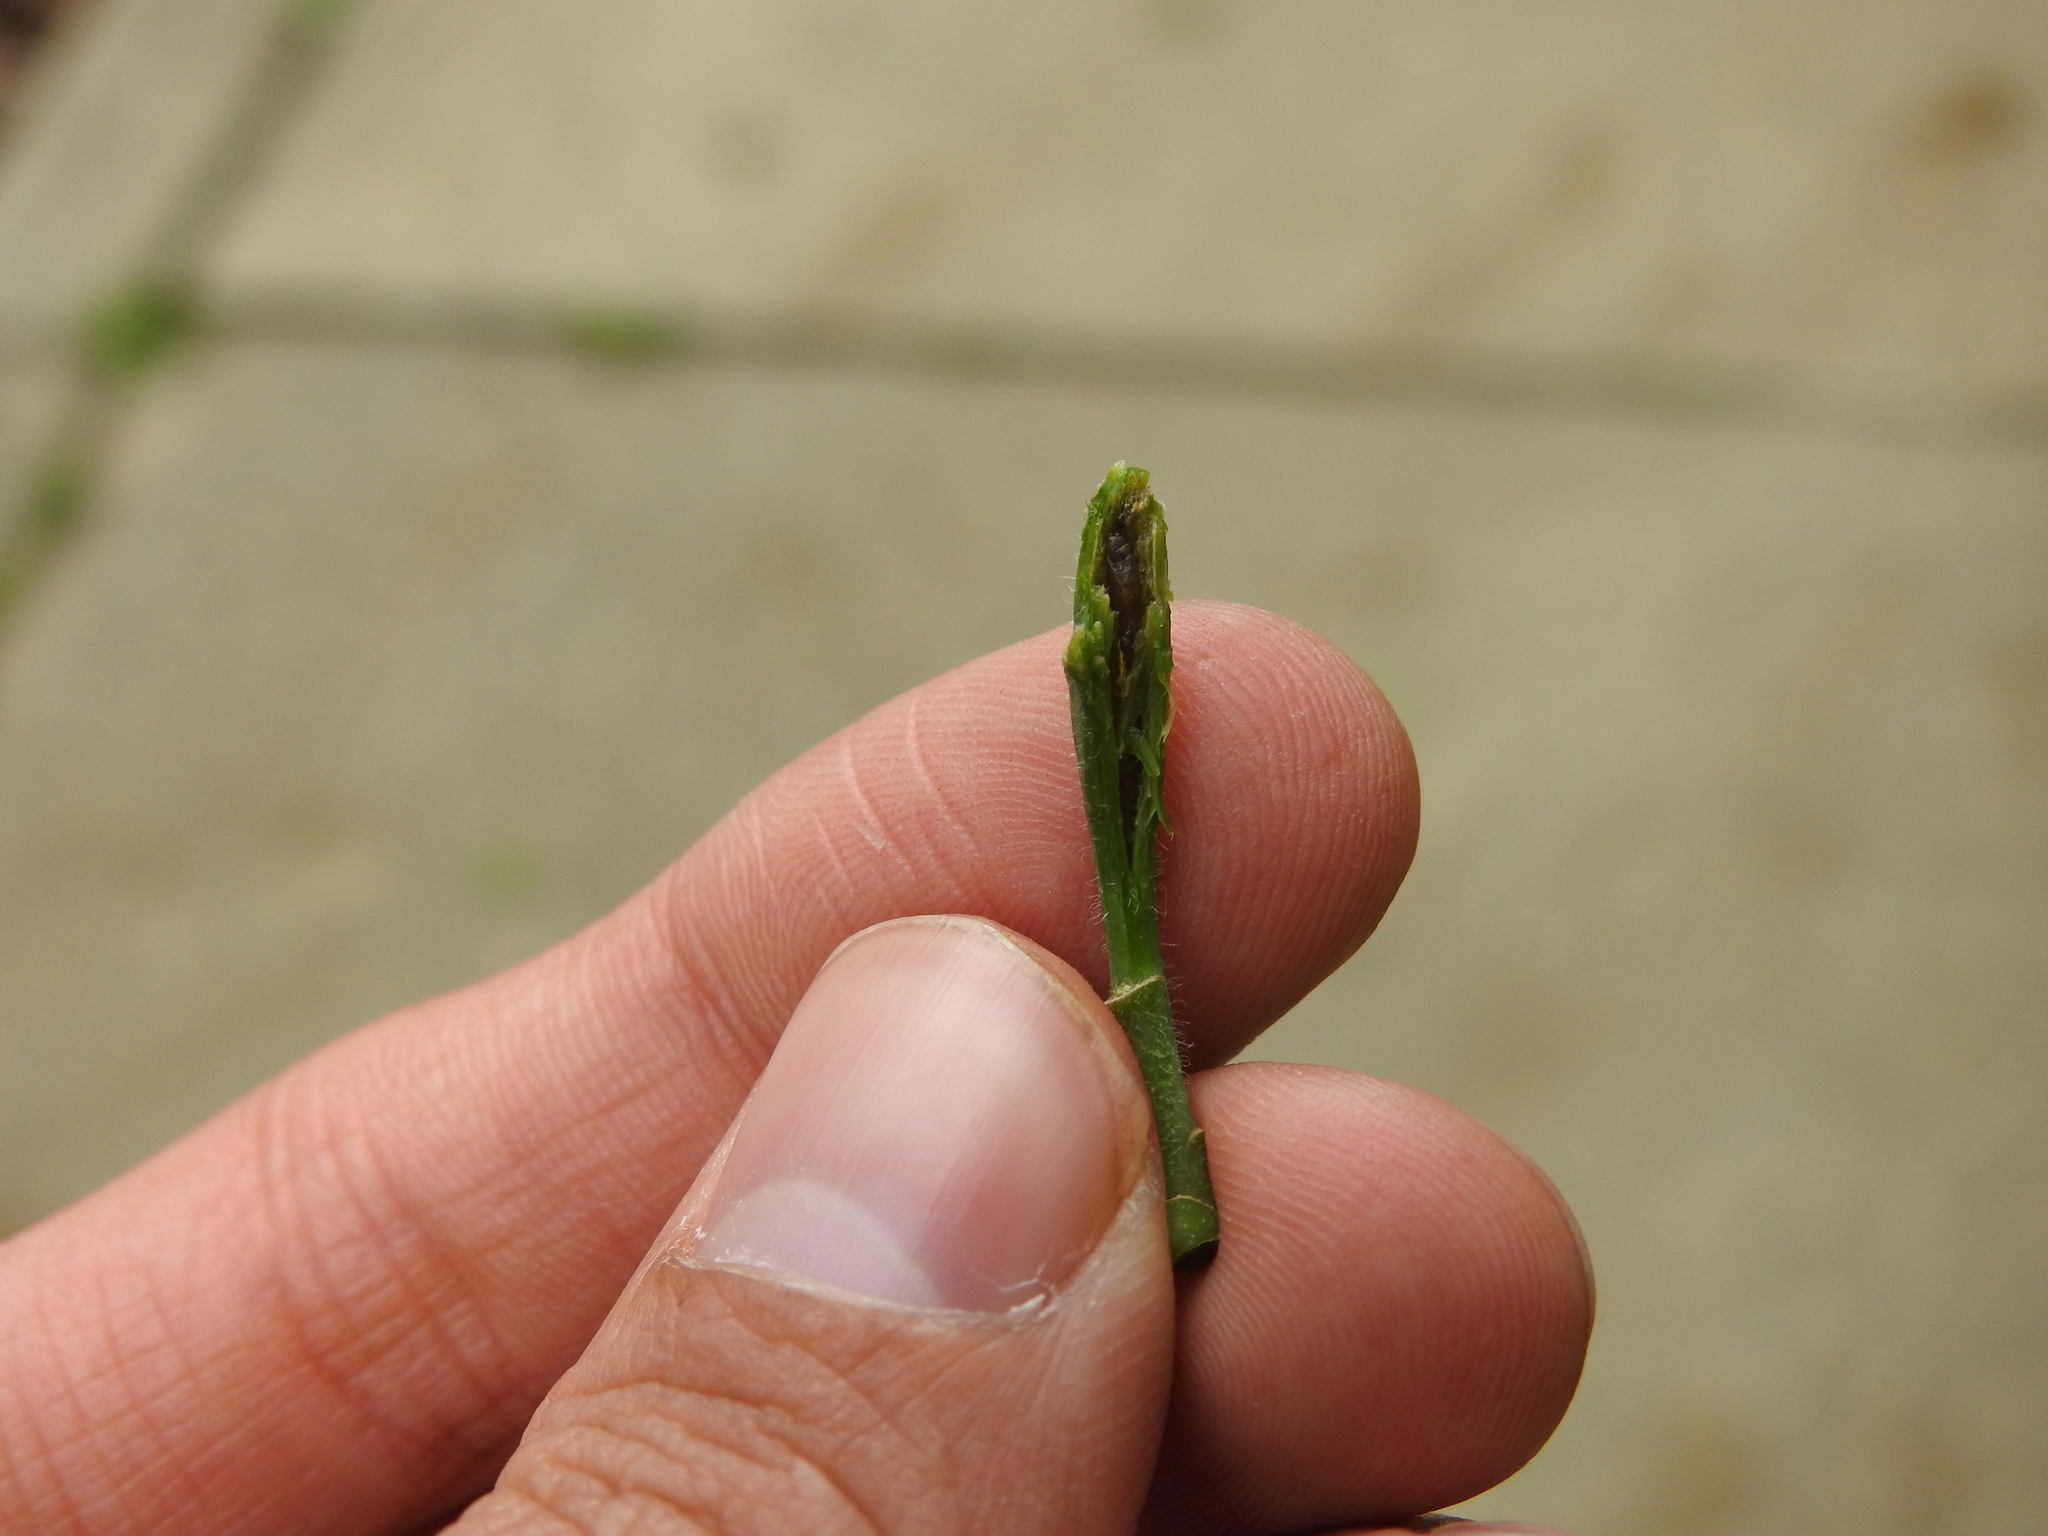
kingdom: Animalia
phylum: Arthropoda
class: Insecta
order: Diptera
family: Agromyzidae
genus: Agromyza
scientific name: Agromyza deserta
